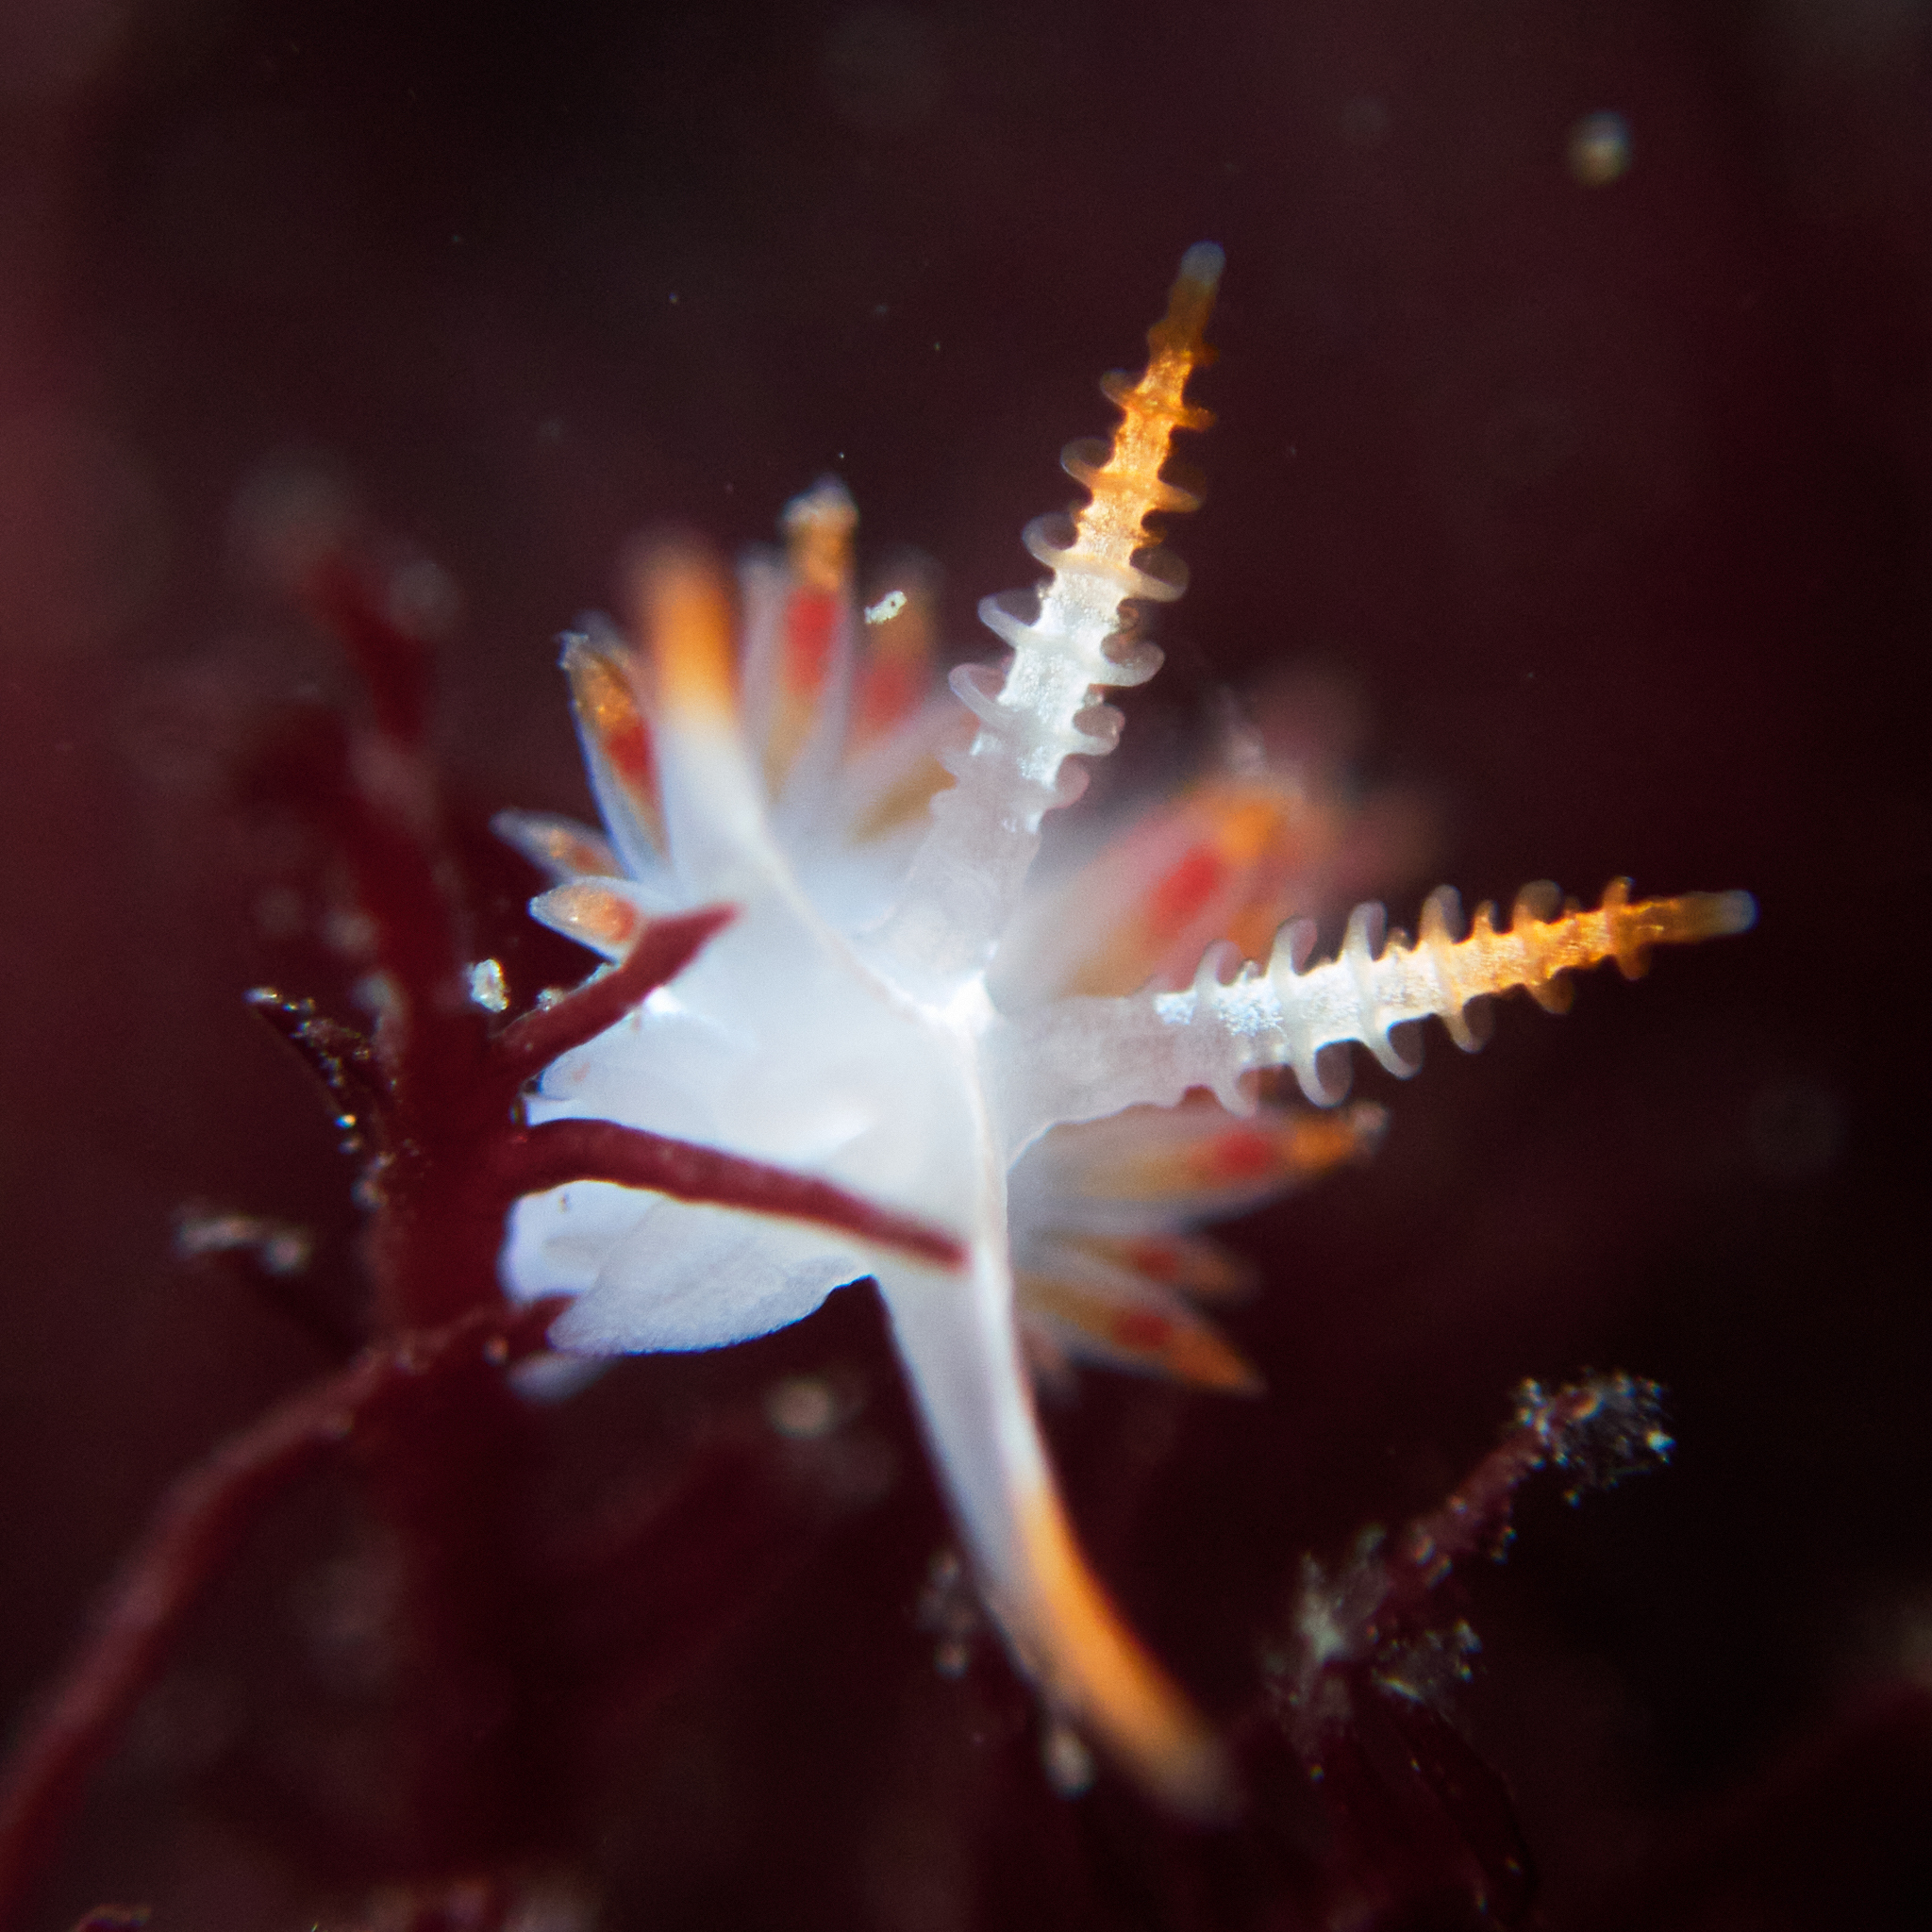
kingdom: Animalia
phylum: Mollusca
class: Gastropoda
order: Nudibranchia
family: Coryphellidae
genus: Coryphella
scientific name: Coryphella trilineata
